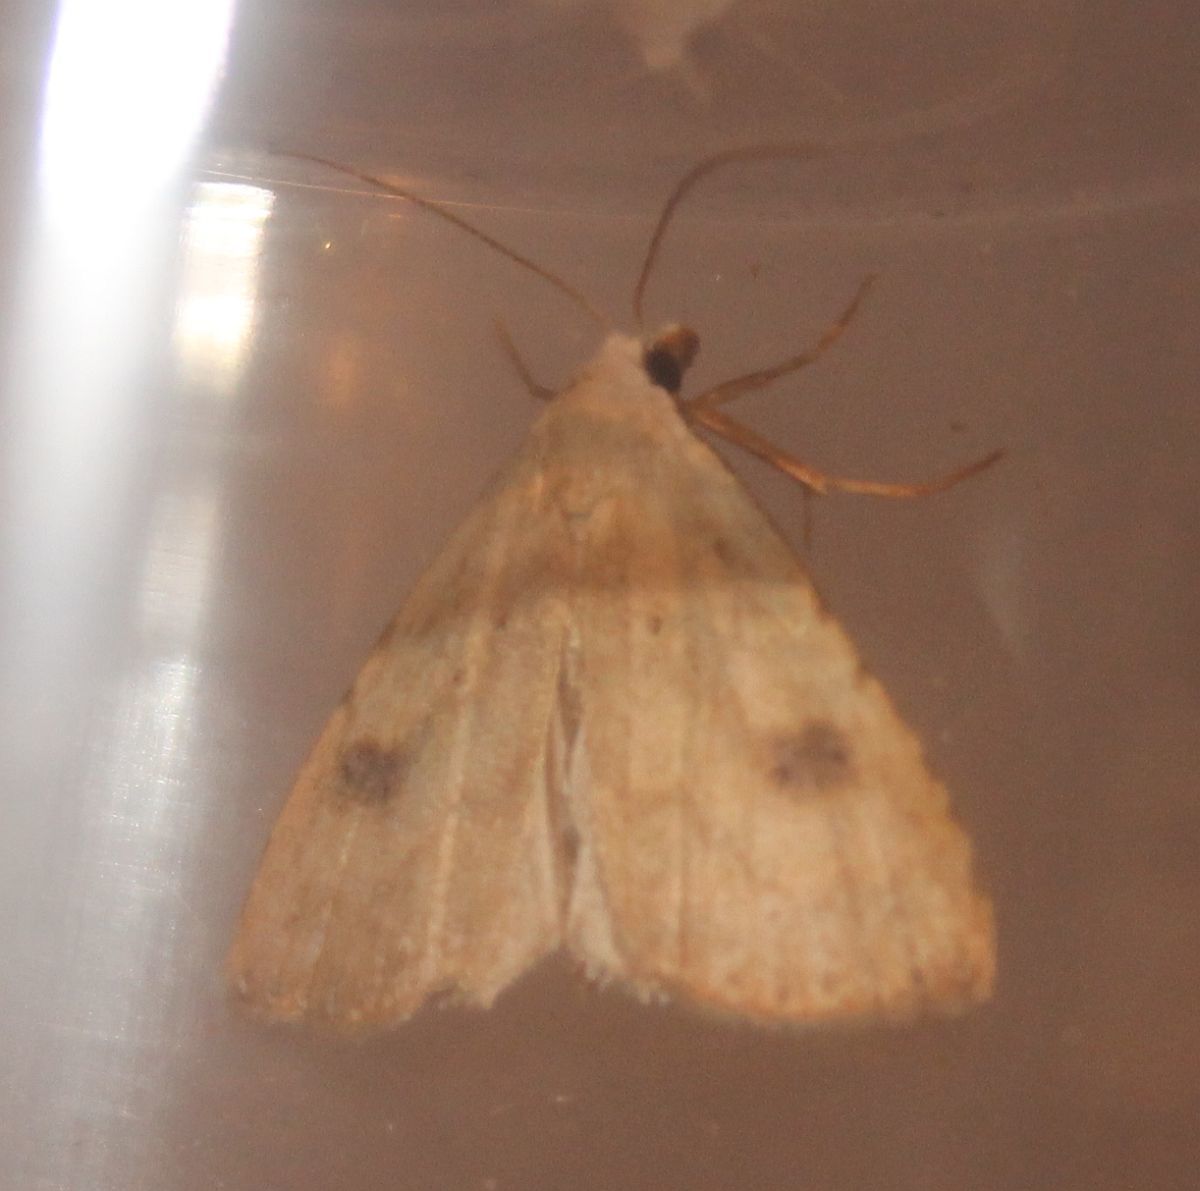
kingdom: Animalia
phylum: Arthropoda
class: Insecta
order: Lepidoptera
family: Erebidae
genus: Rivula
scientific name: Rivula sericealis
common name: Straw dot
